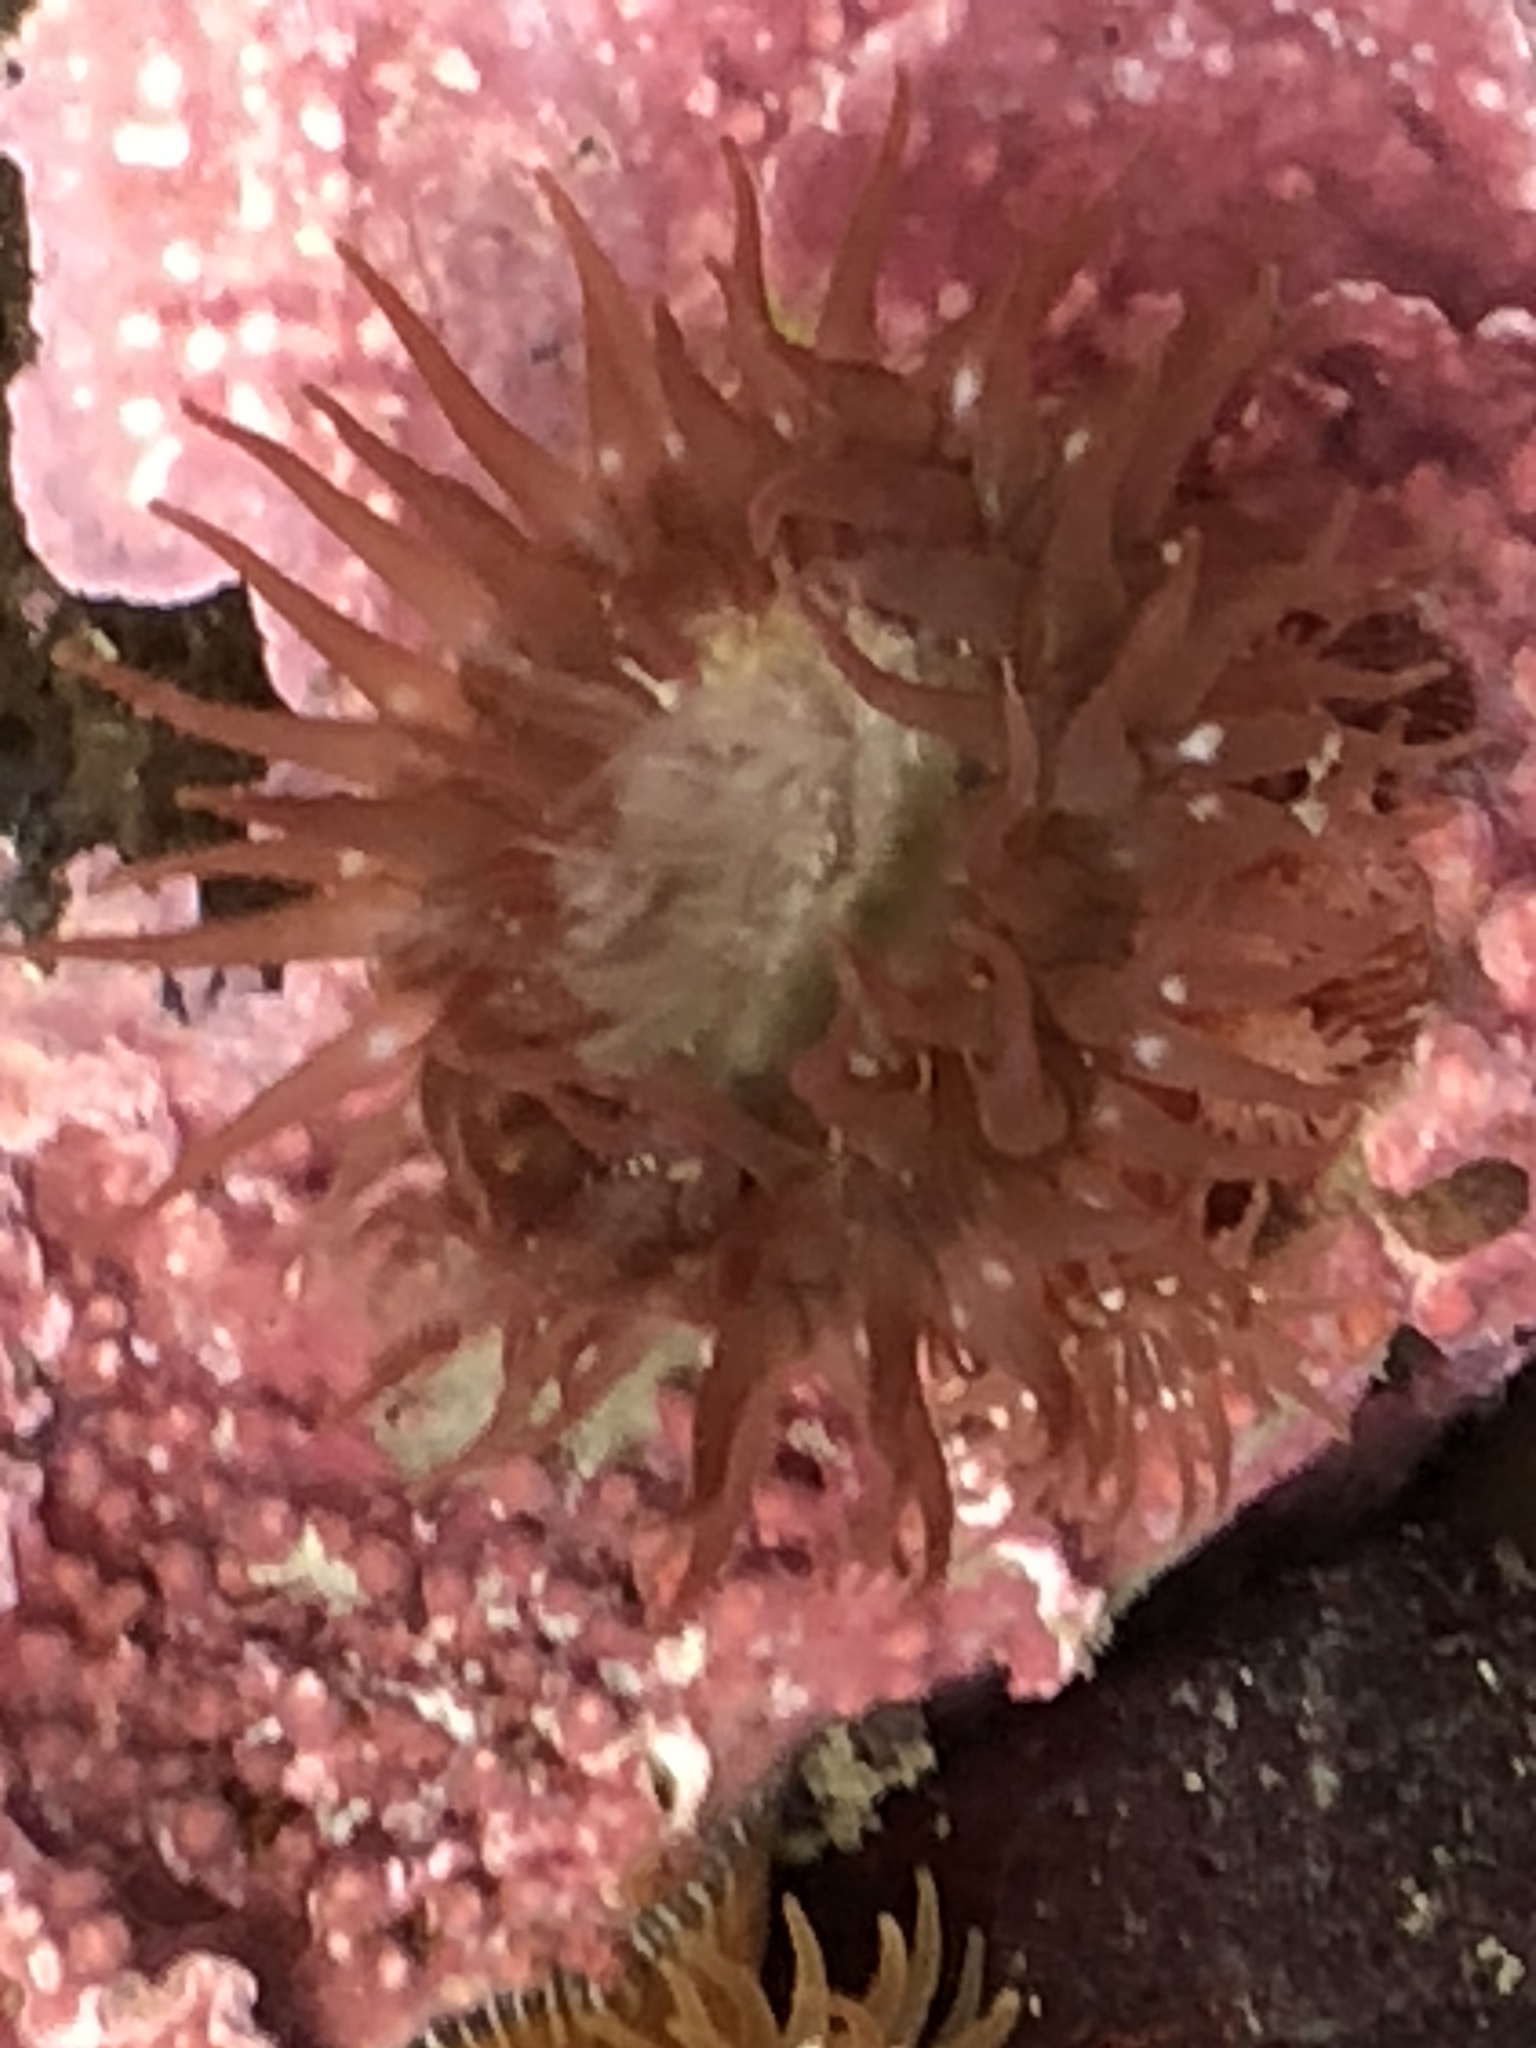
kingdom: Animalia
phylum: Cnidaria
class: Anthozoa
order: Actiniaria
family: Actiniidae
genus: Epiactis
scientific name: Epiactis prolifera
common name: Brooding anemone
